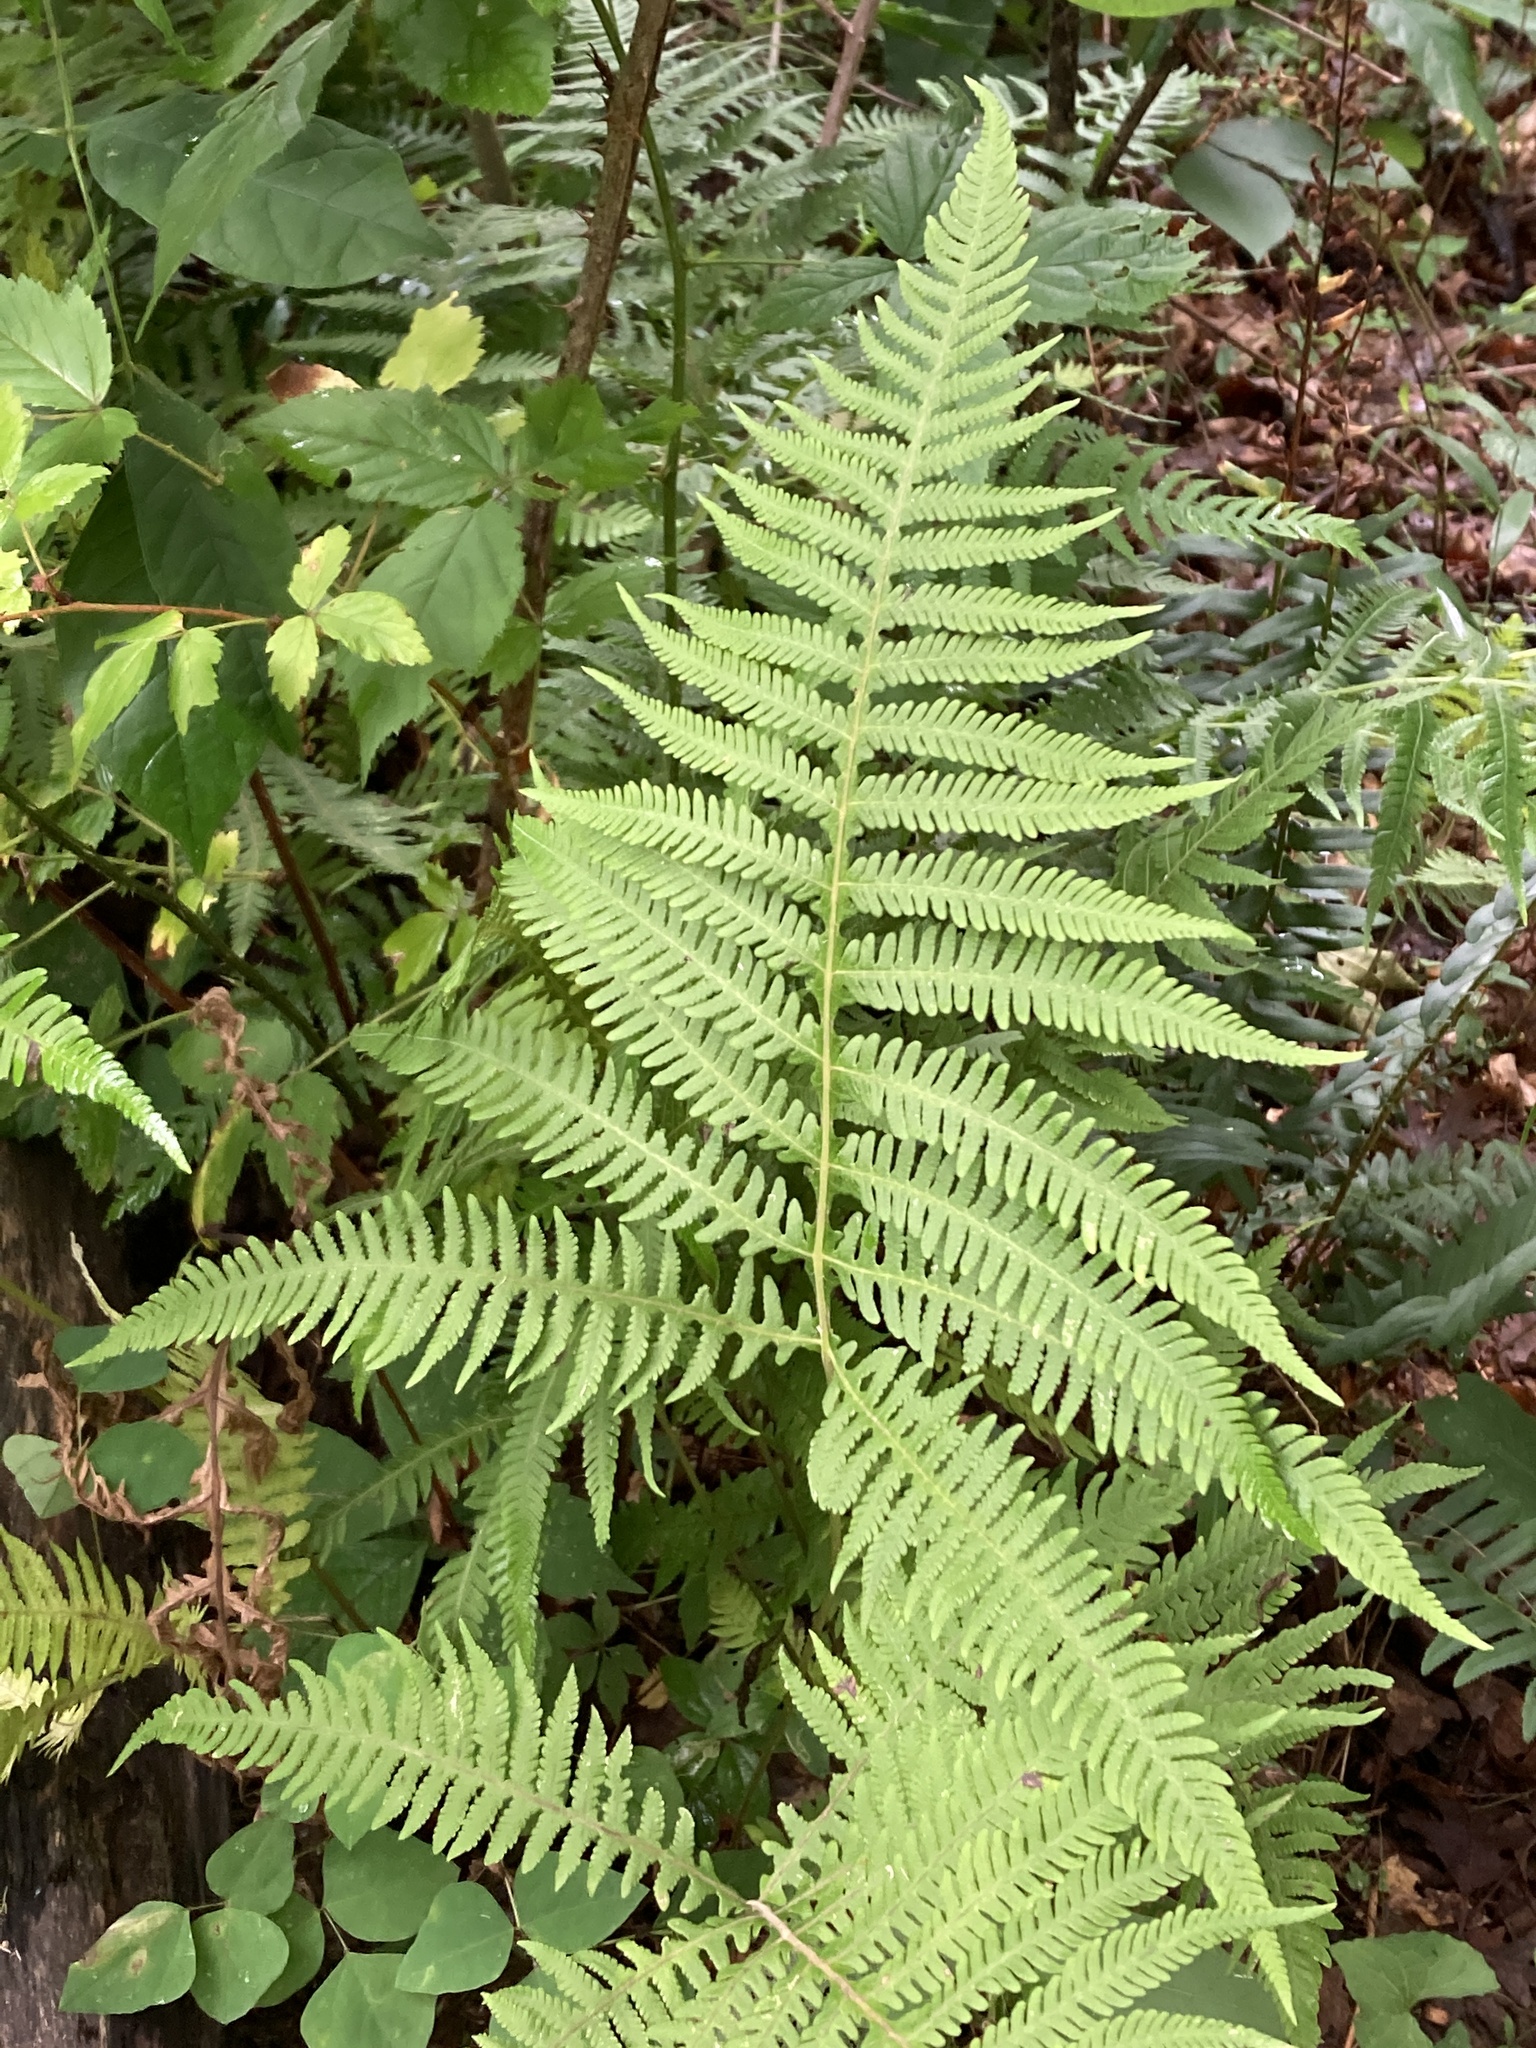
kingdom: Plantae
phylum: Tracheophyta
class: Polypodiopsida
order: Polypodiales
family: Thelypteridaceae
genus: Phegopteris
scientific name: Phegopteris hexagonoptera
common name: Broad beech fern
